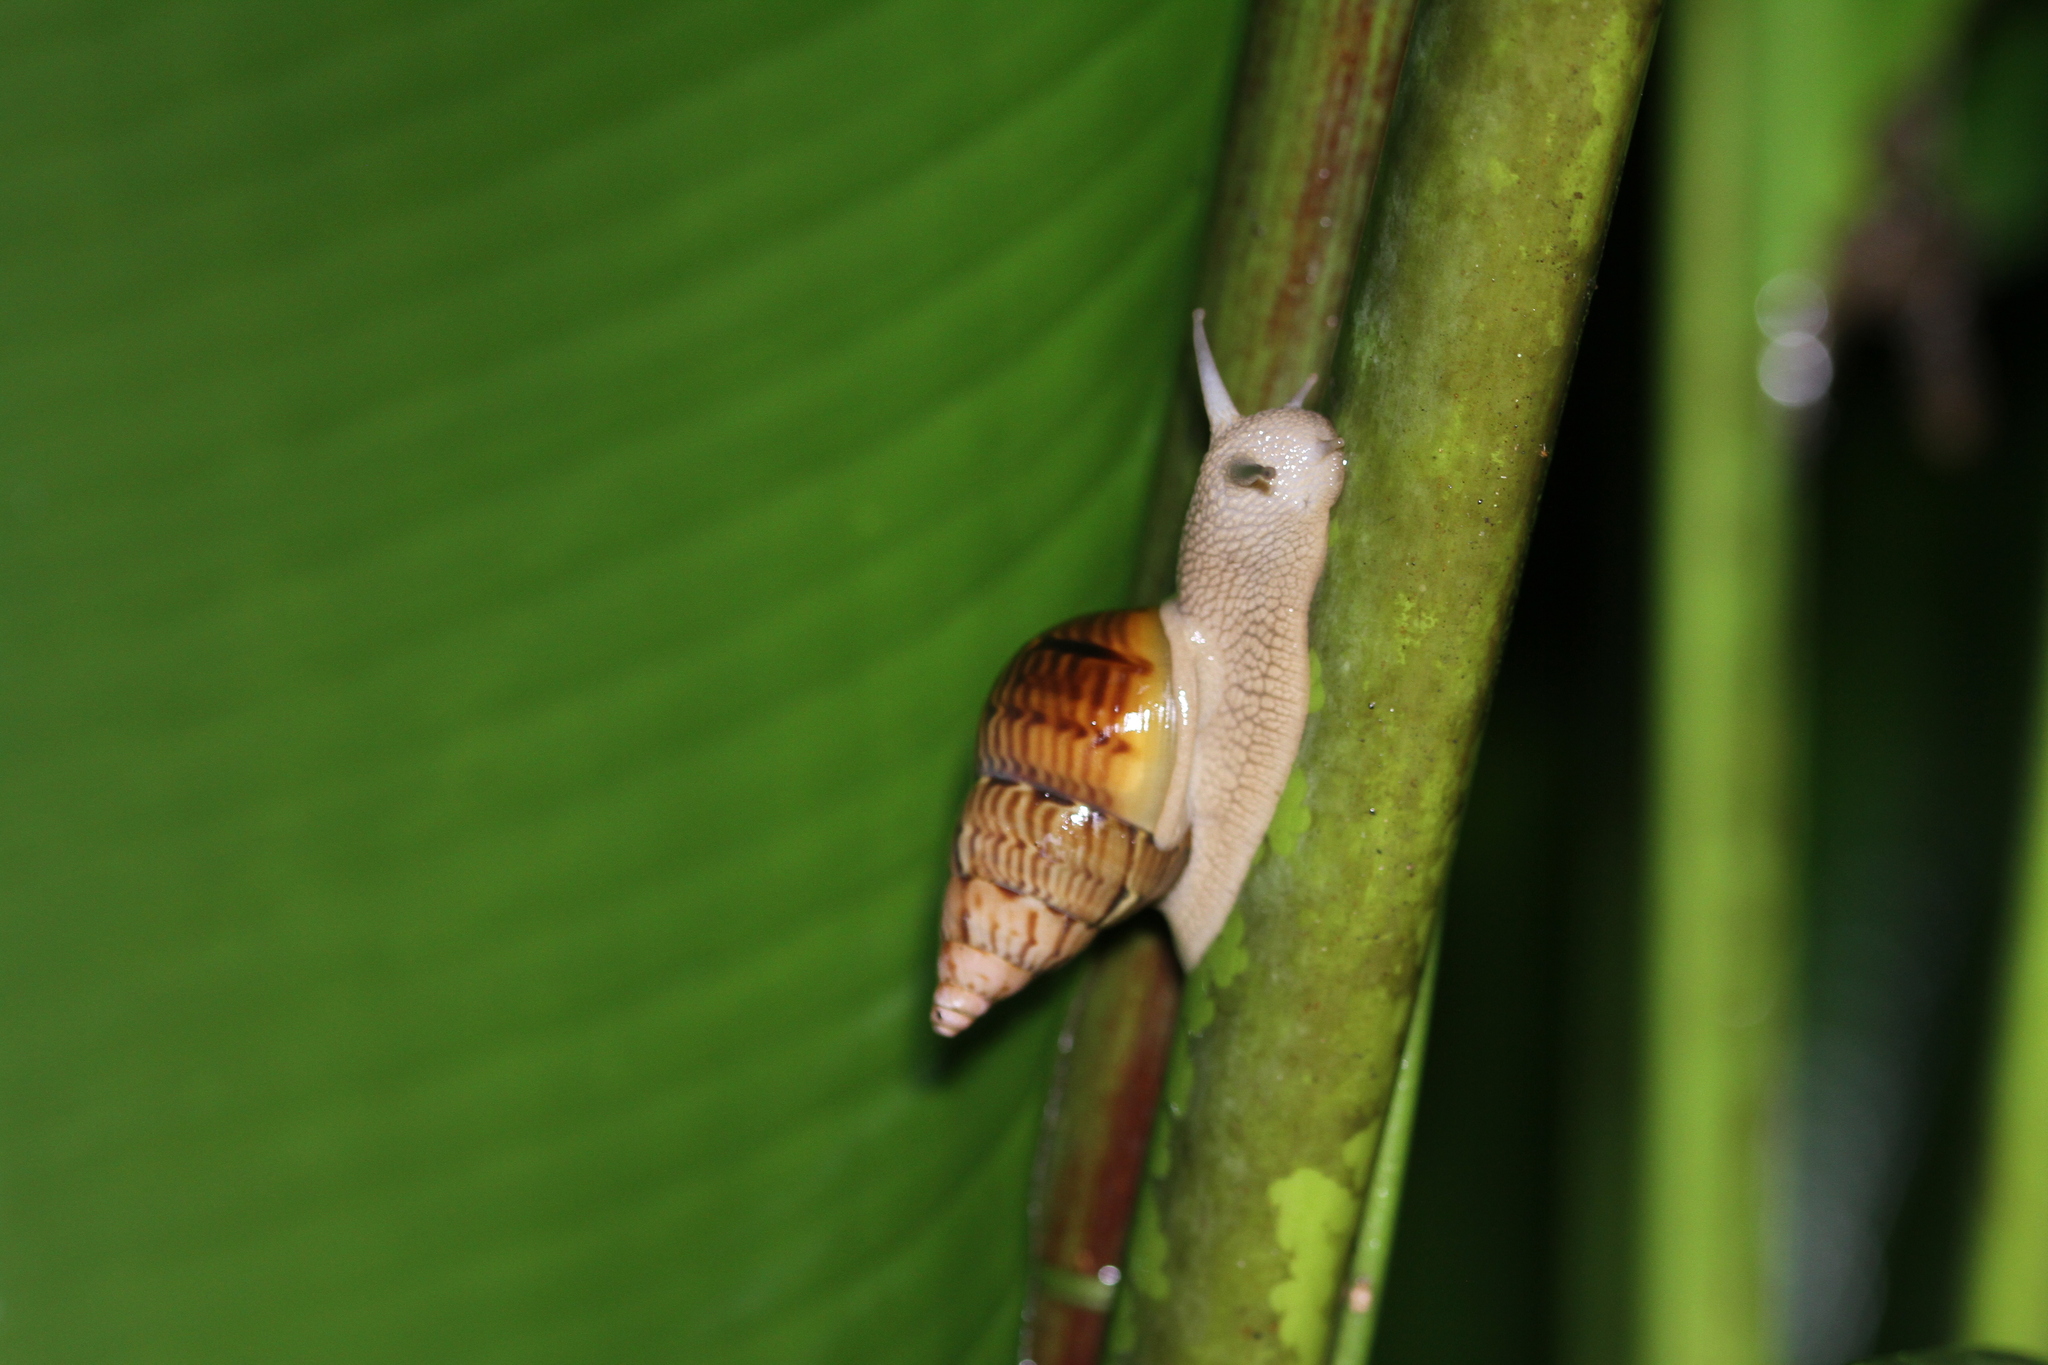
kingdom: Animalia
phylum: Mollusca
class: Gastropoda
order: Stylommatophora
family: Orthalicidae
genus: Orthalicus
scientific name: Orthalicus bensoni
